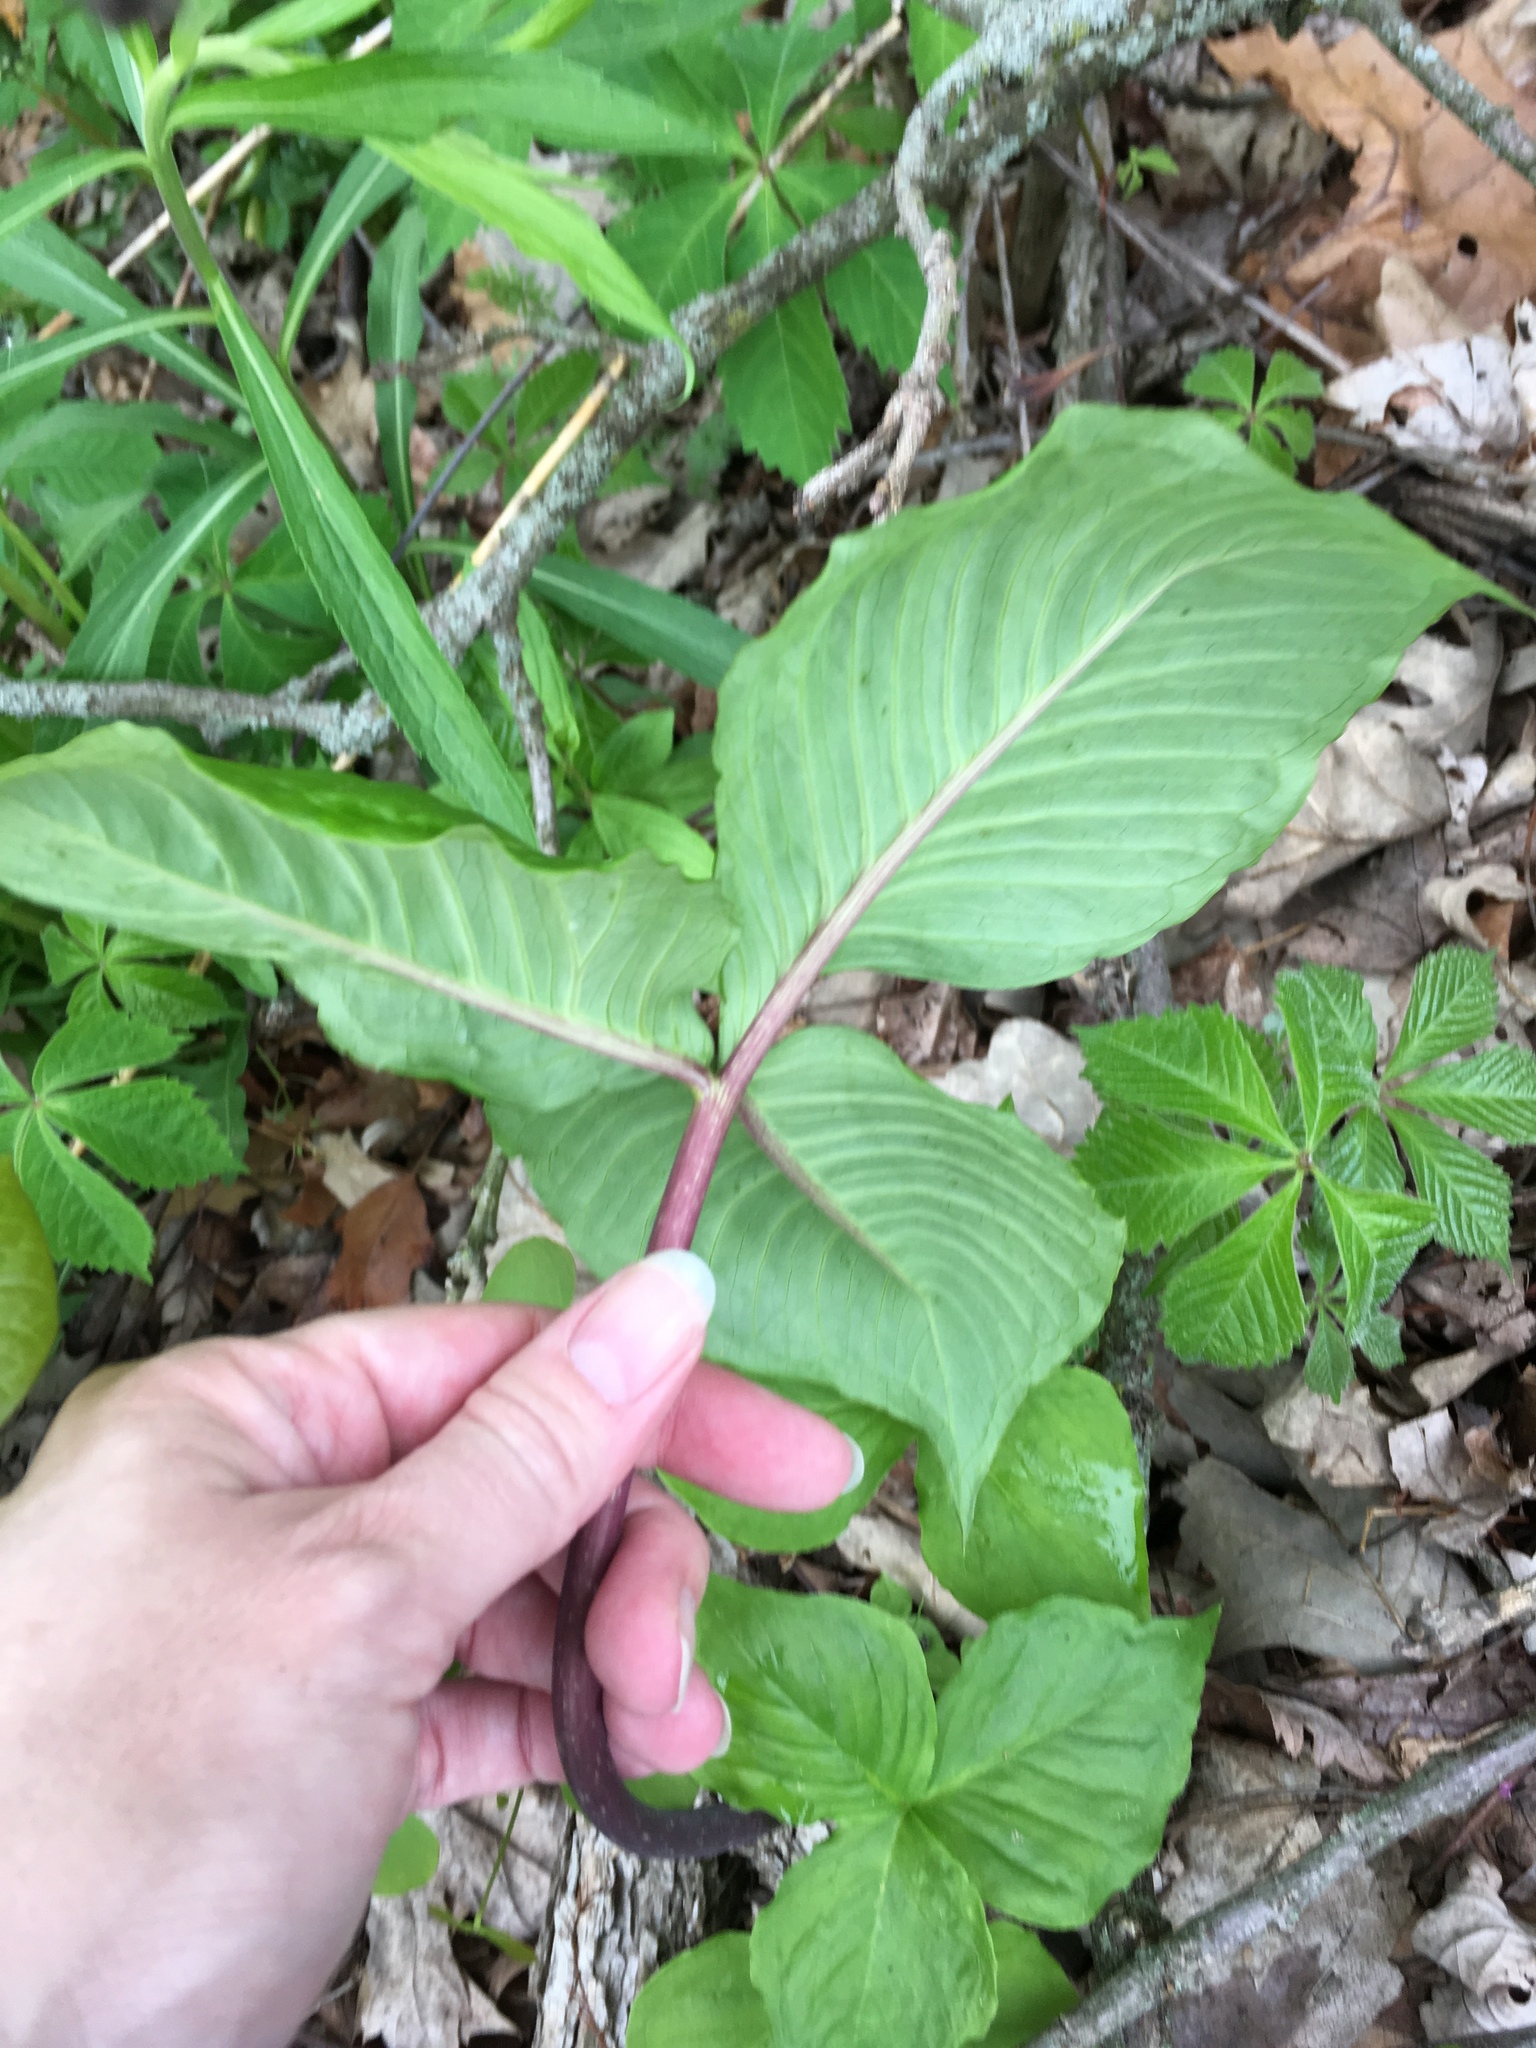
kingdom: Plantae
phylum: Tracheophyta
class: Liliopsida
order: Alismatales
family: Araceae
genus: Arisaema
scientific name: Arisaema triphyllum
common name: Jack-in-the-pulpit
